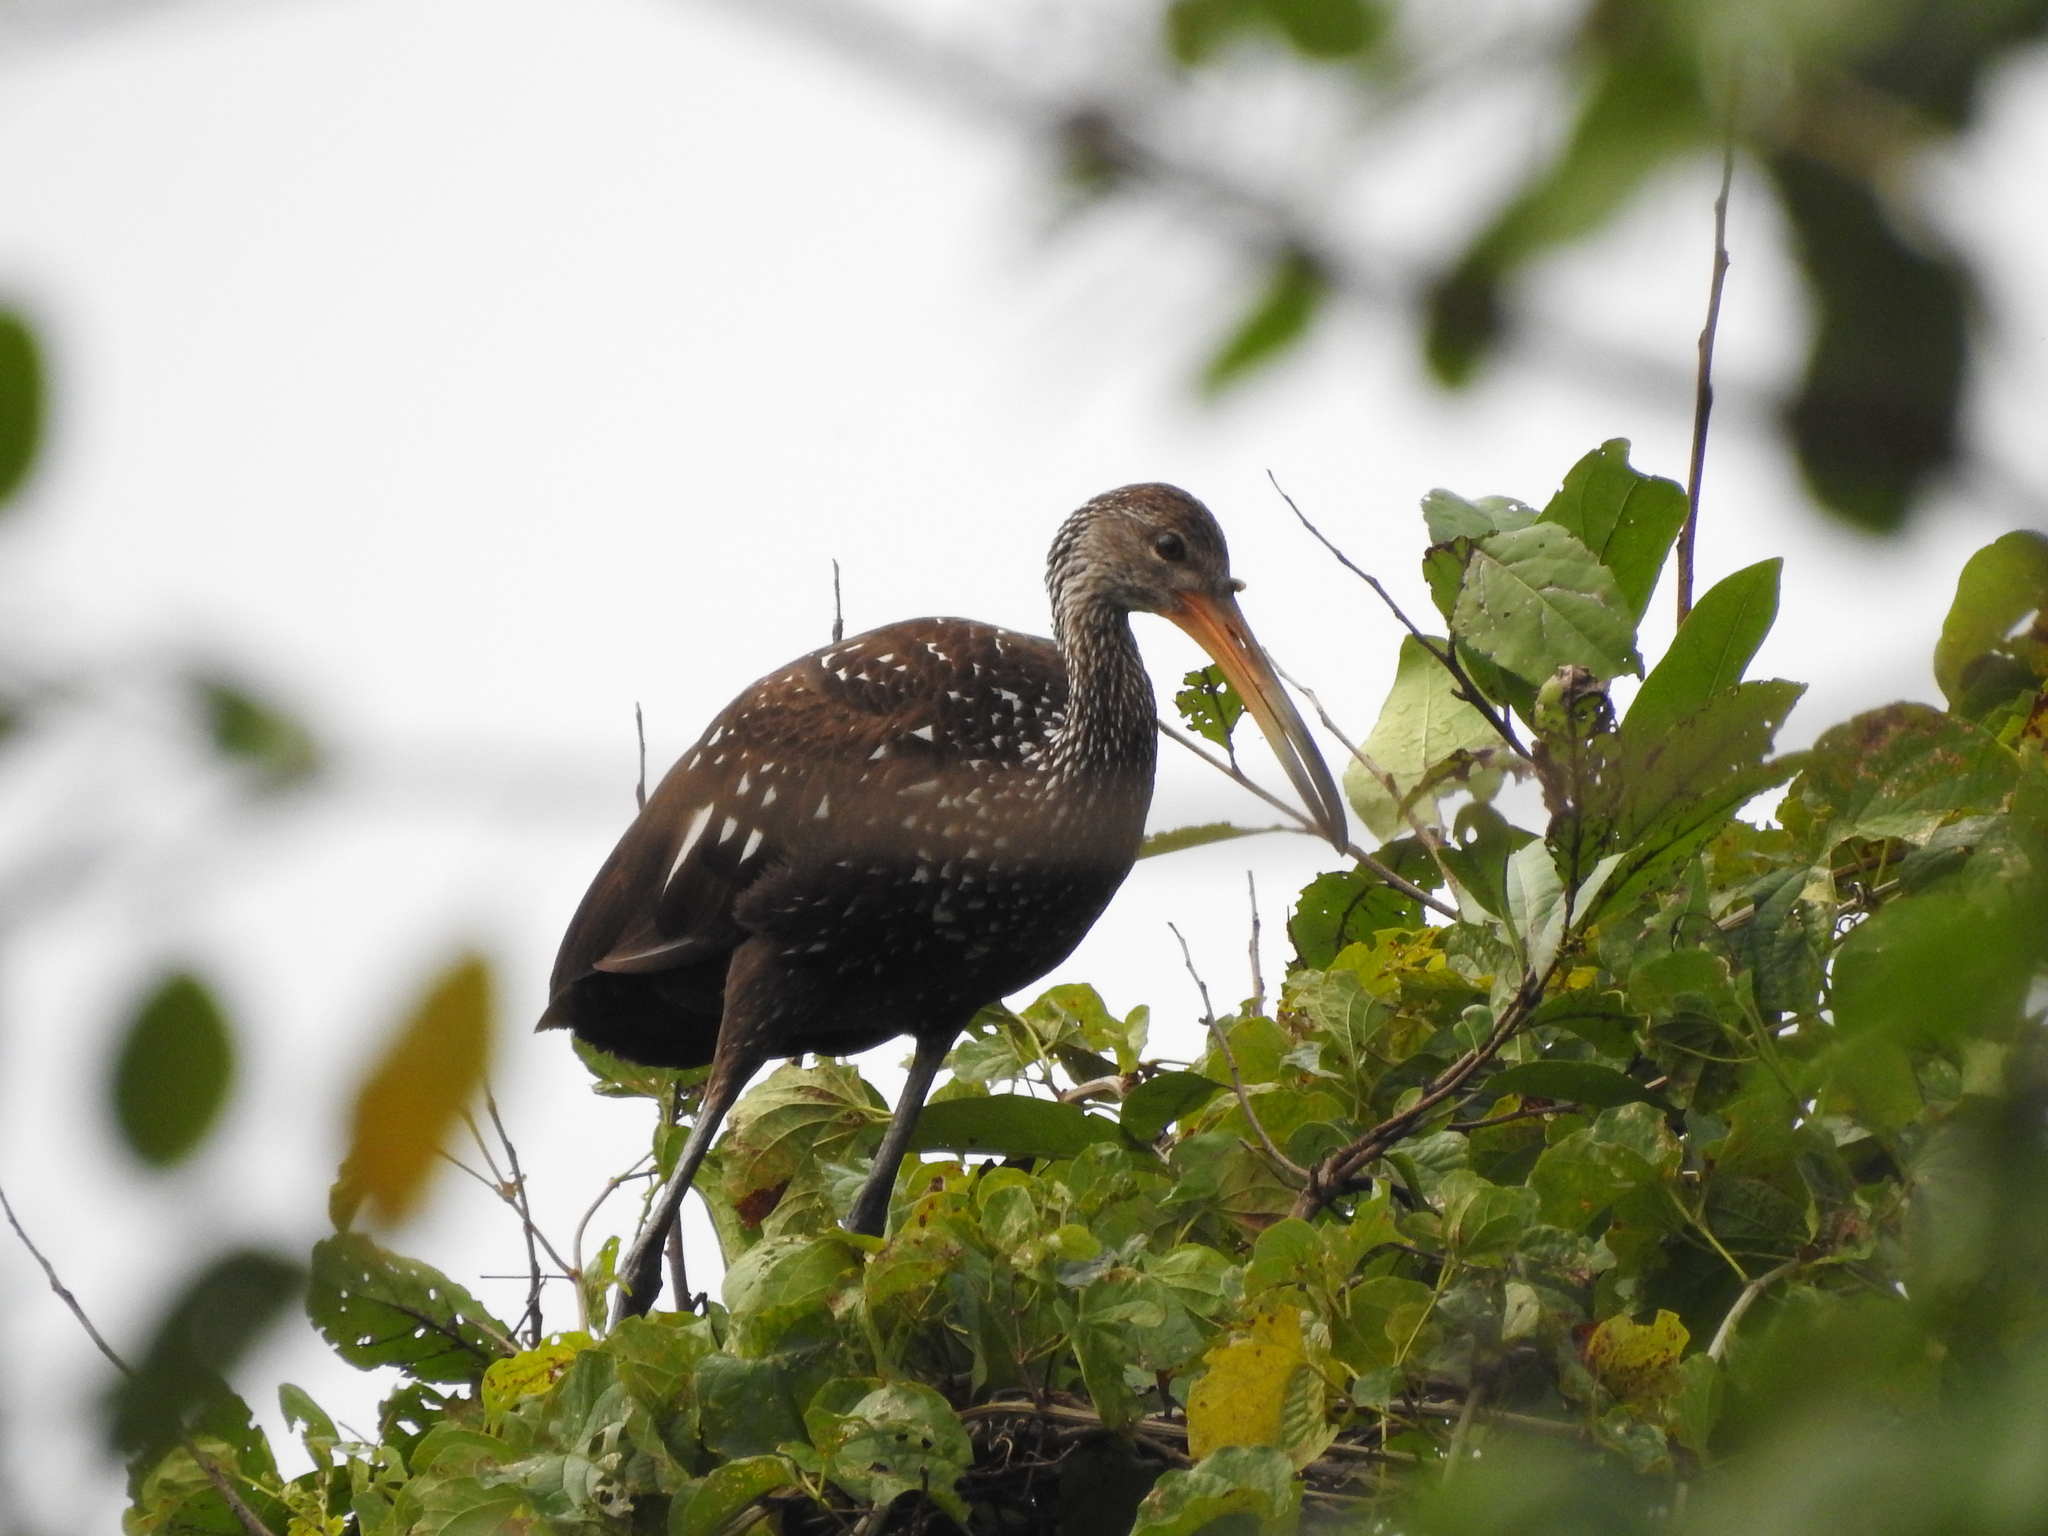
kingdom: Animalia
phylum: Chordata
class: Aves
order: Gruiformes
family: Aramidae
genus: Aramus
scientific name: Aramus guarauna
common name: Limpkin
